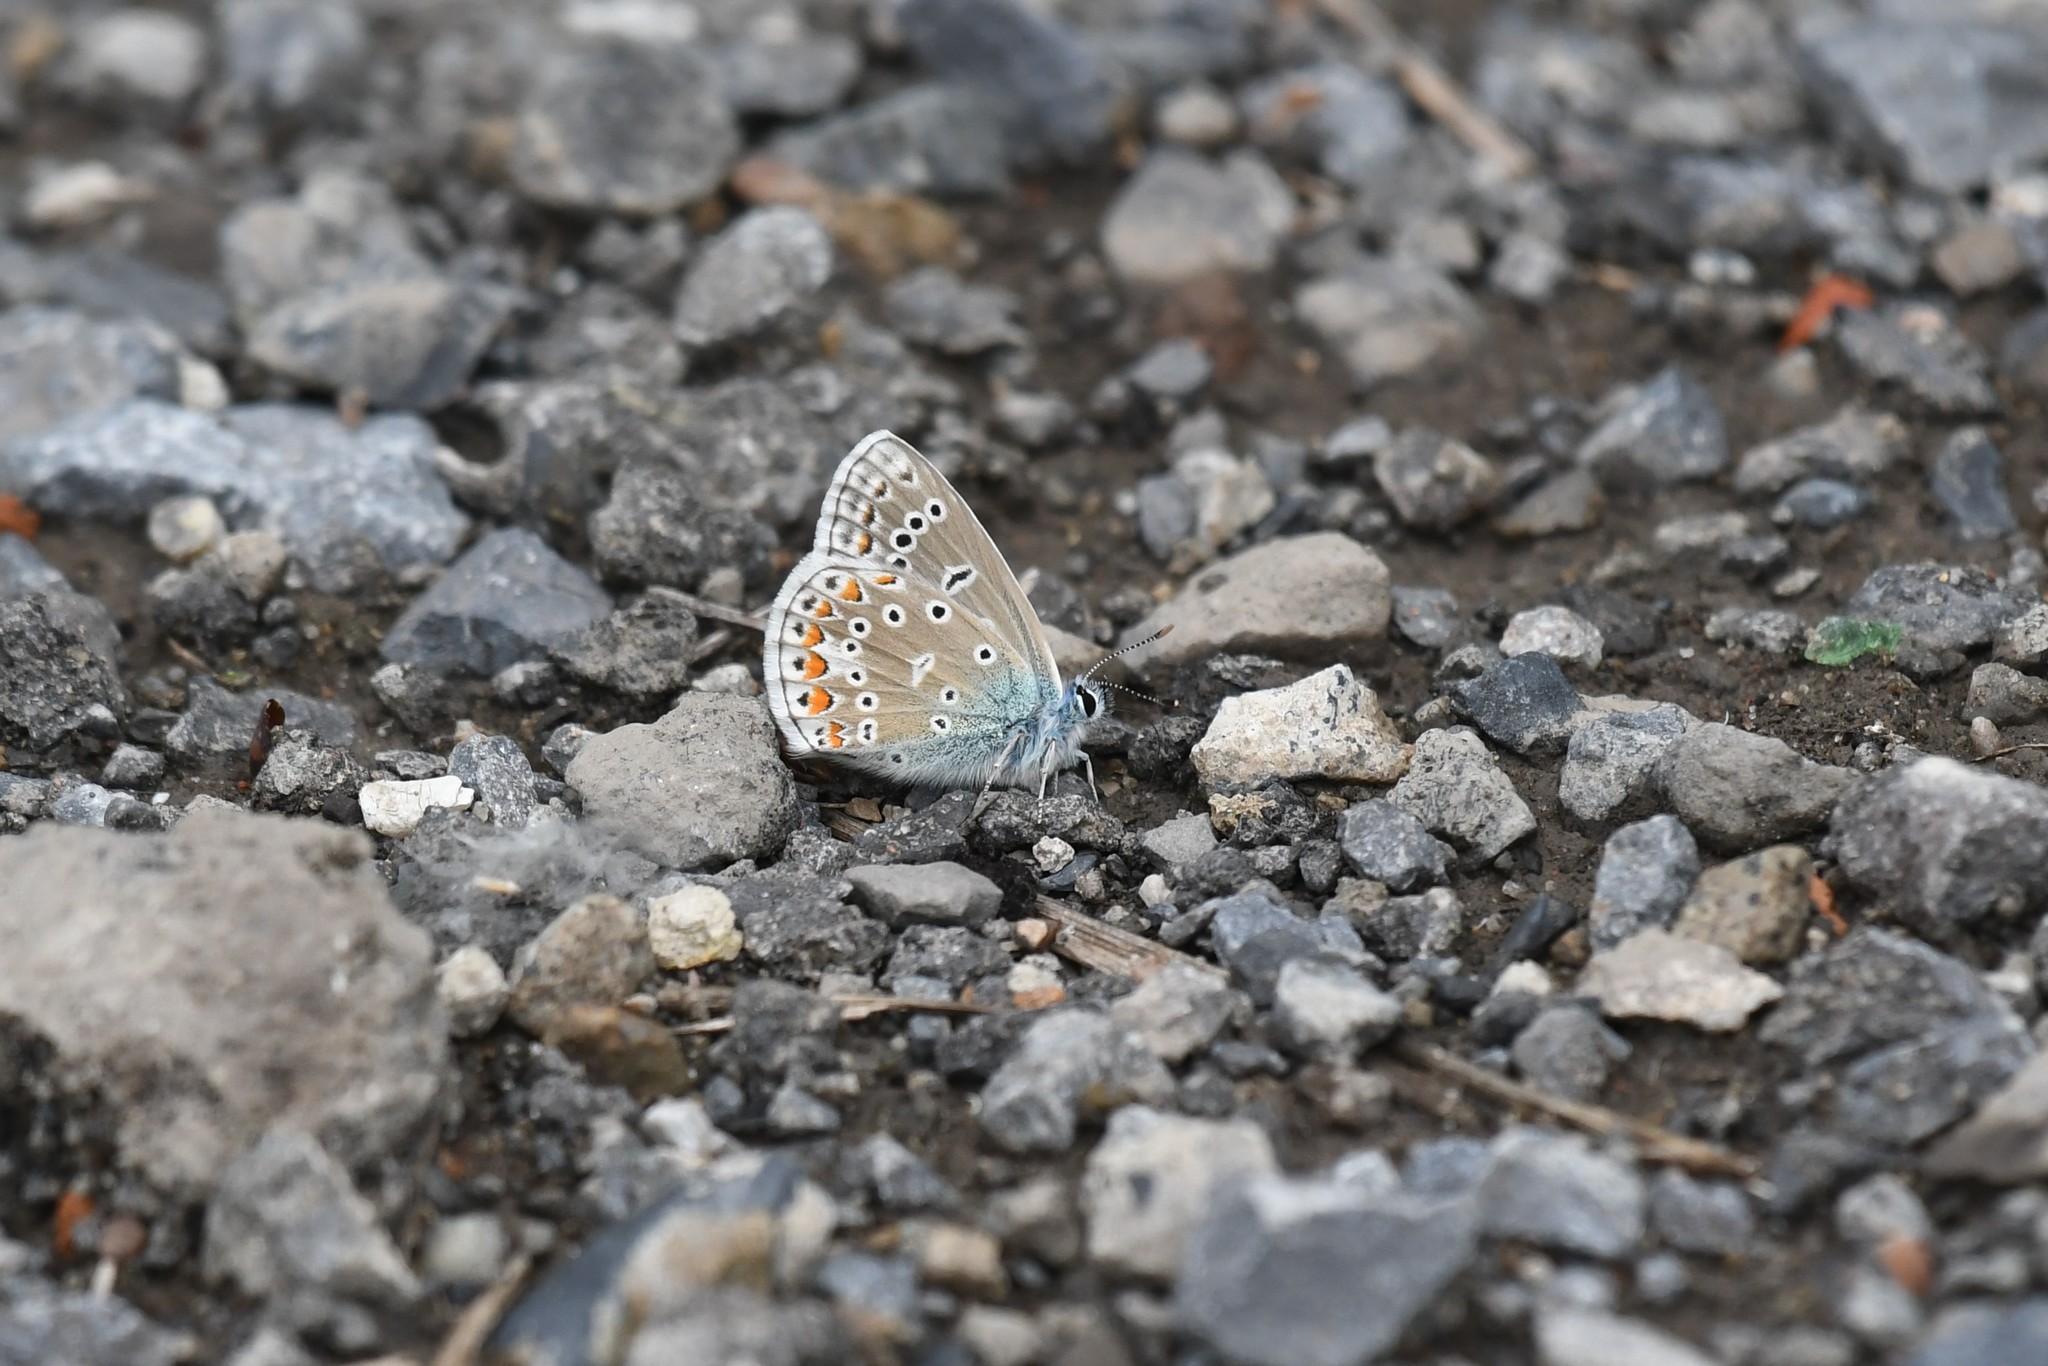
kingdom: Animalia
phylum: Arthropoda
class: Insecta
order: Lepidoptera
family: Lycaenidae
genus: Polyommatus
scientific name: Polyommatus icarus
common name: Common blue
